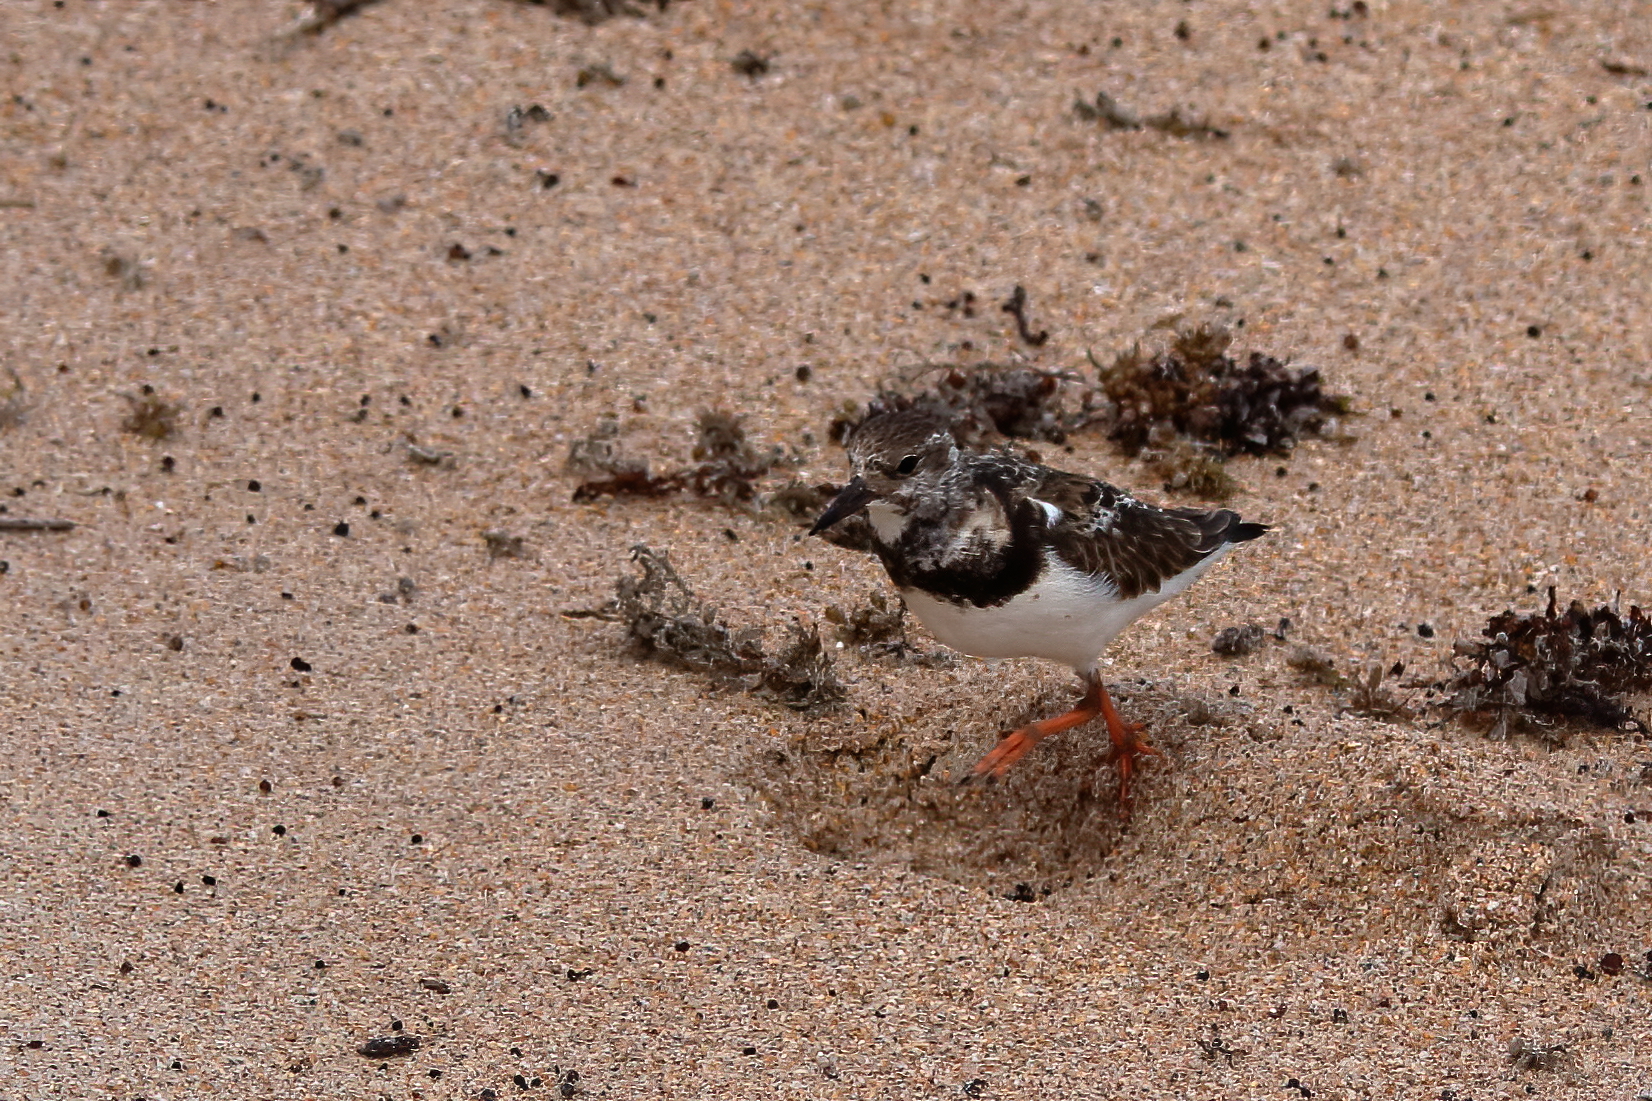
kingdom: Animalia
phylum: Chordata
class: Aves
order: Charadriiformes
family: Scolopacidae
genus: Arenaria
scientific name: Arenaria interpres
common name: Ruddy turnstone
